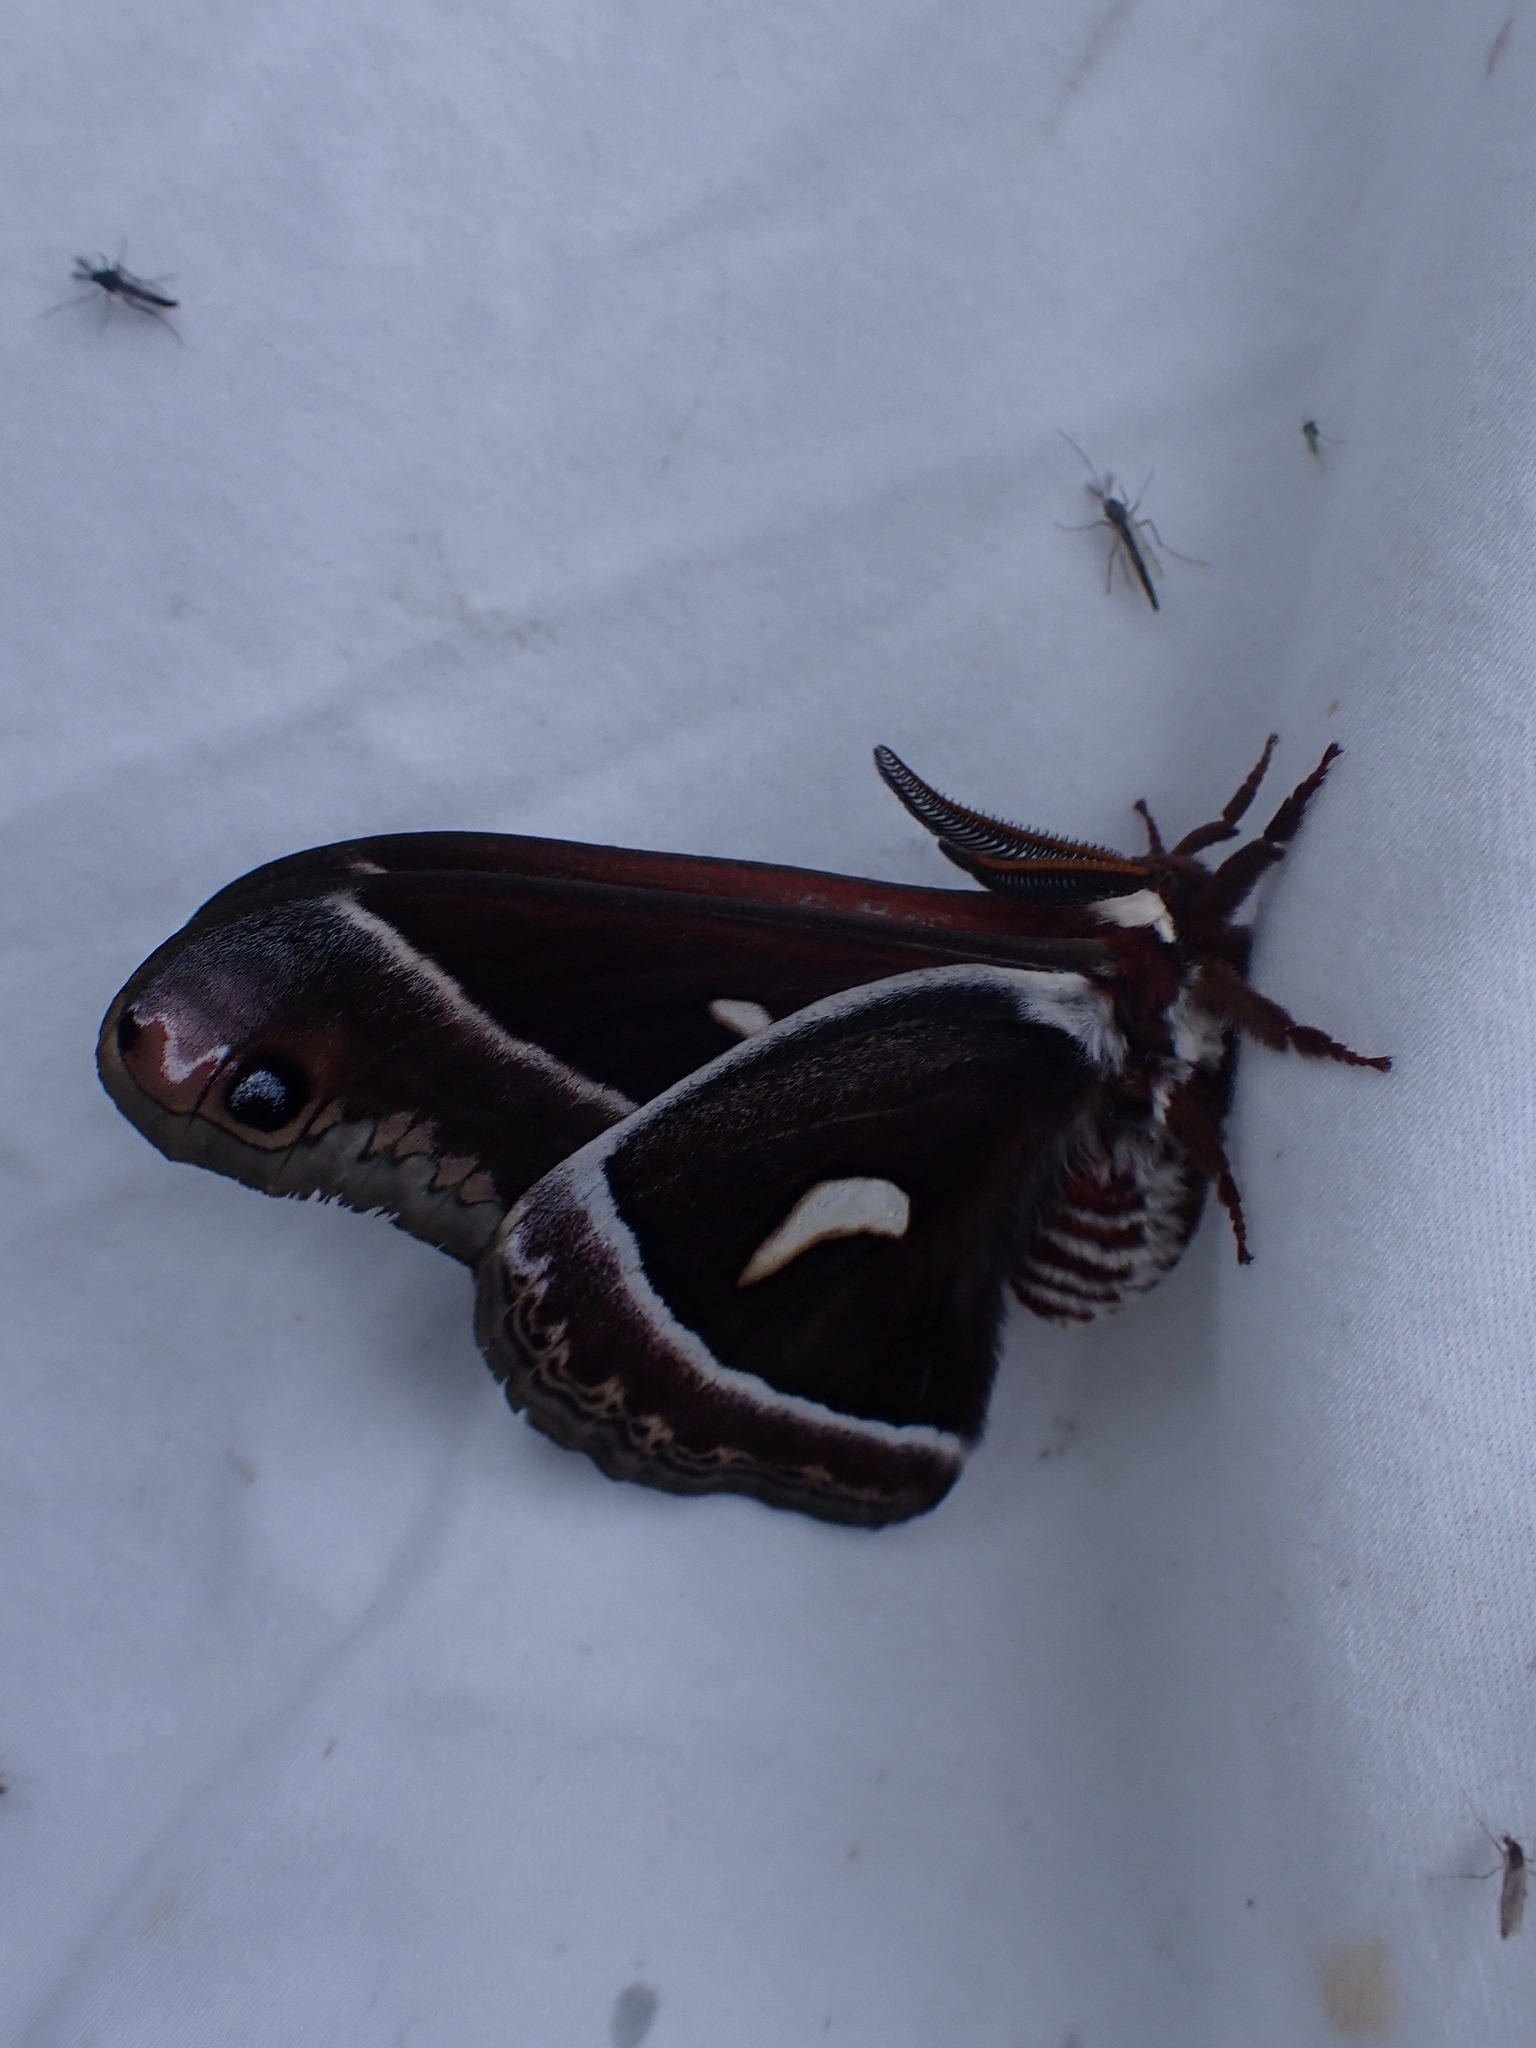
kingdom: Animalia
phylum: Arthropoda
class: Insecta
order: Lepidoptera
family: Saturniidae
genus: Hyalophora
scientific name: Hyalophora euryalus
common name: Ceanothus silkmoth
